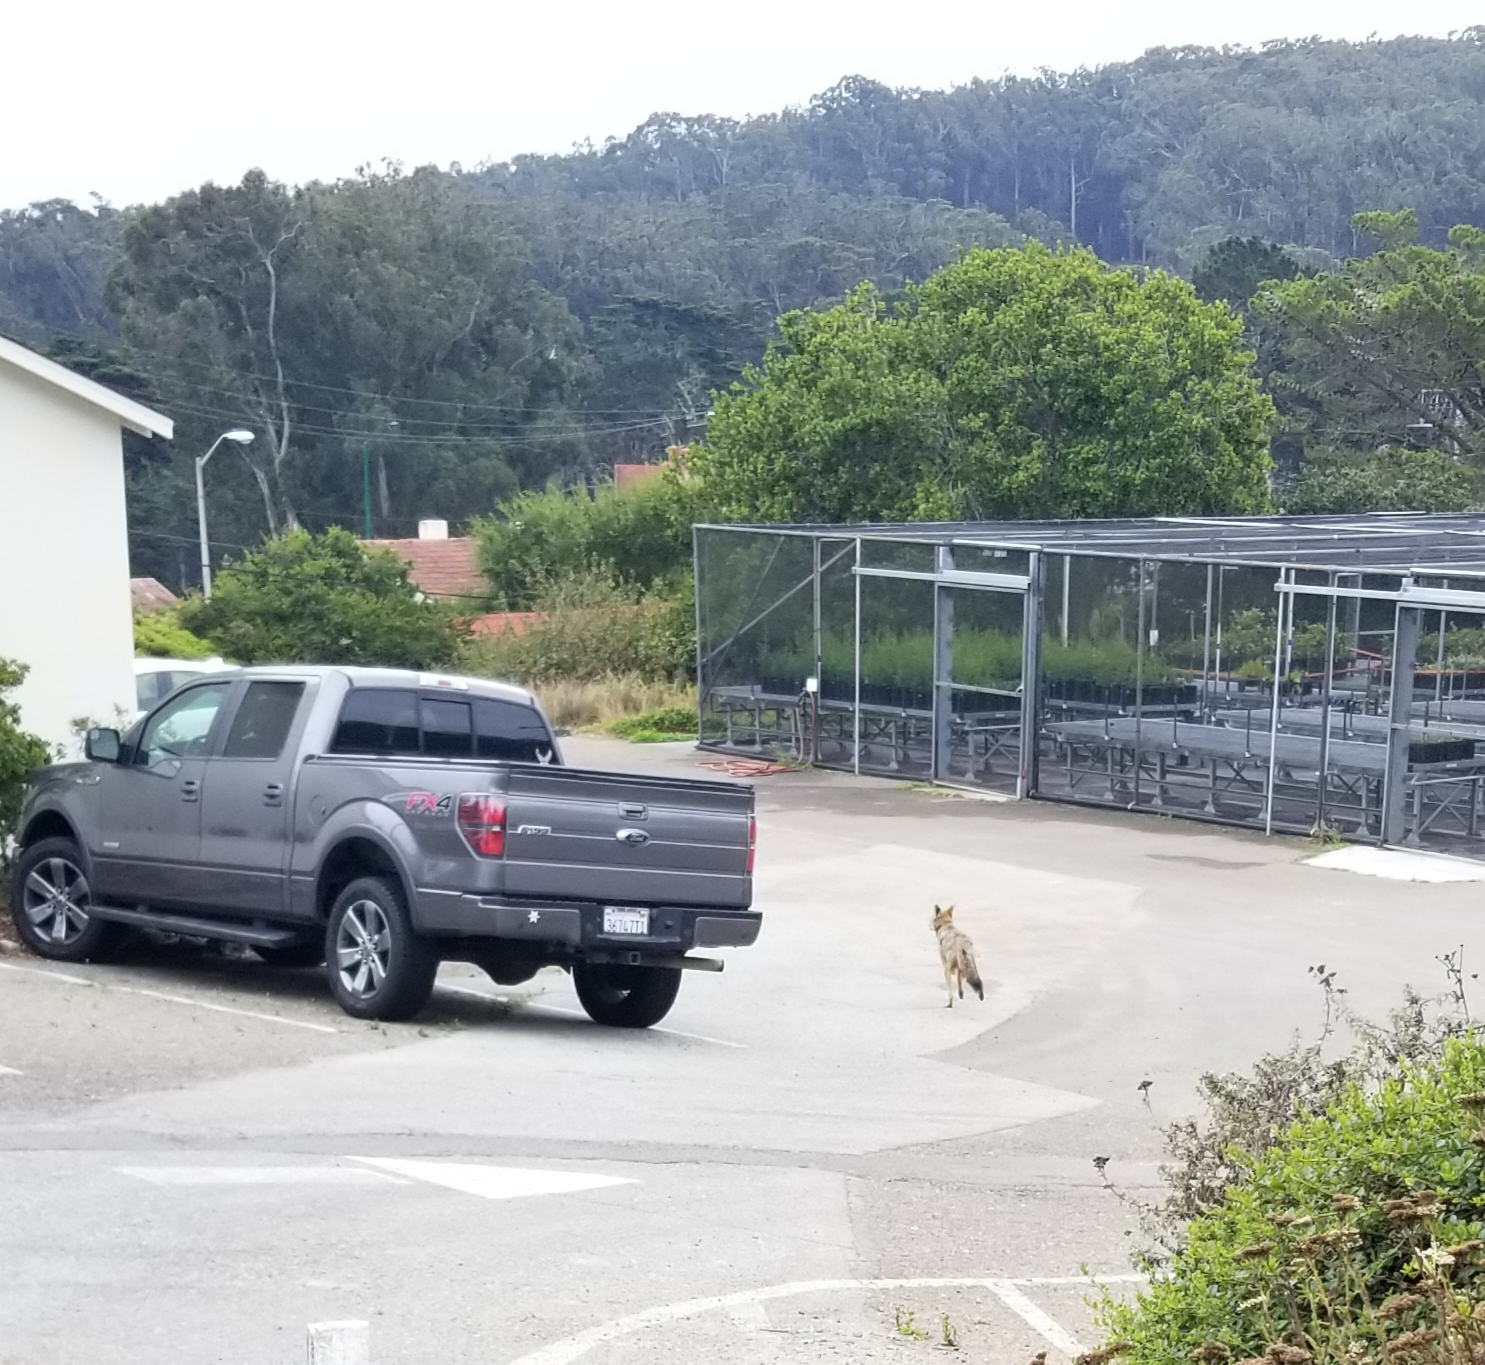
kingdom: Animalia
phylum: Chordata
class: Mammalia
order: Carnivora
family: Canidae
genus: Canis
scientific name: Canis latrans
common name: Coyote
